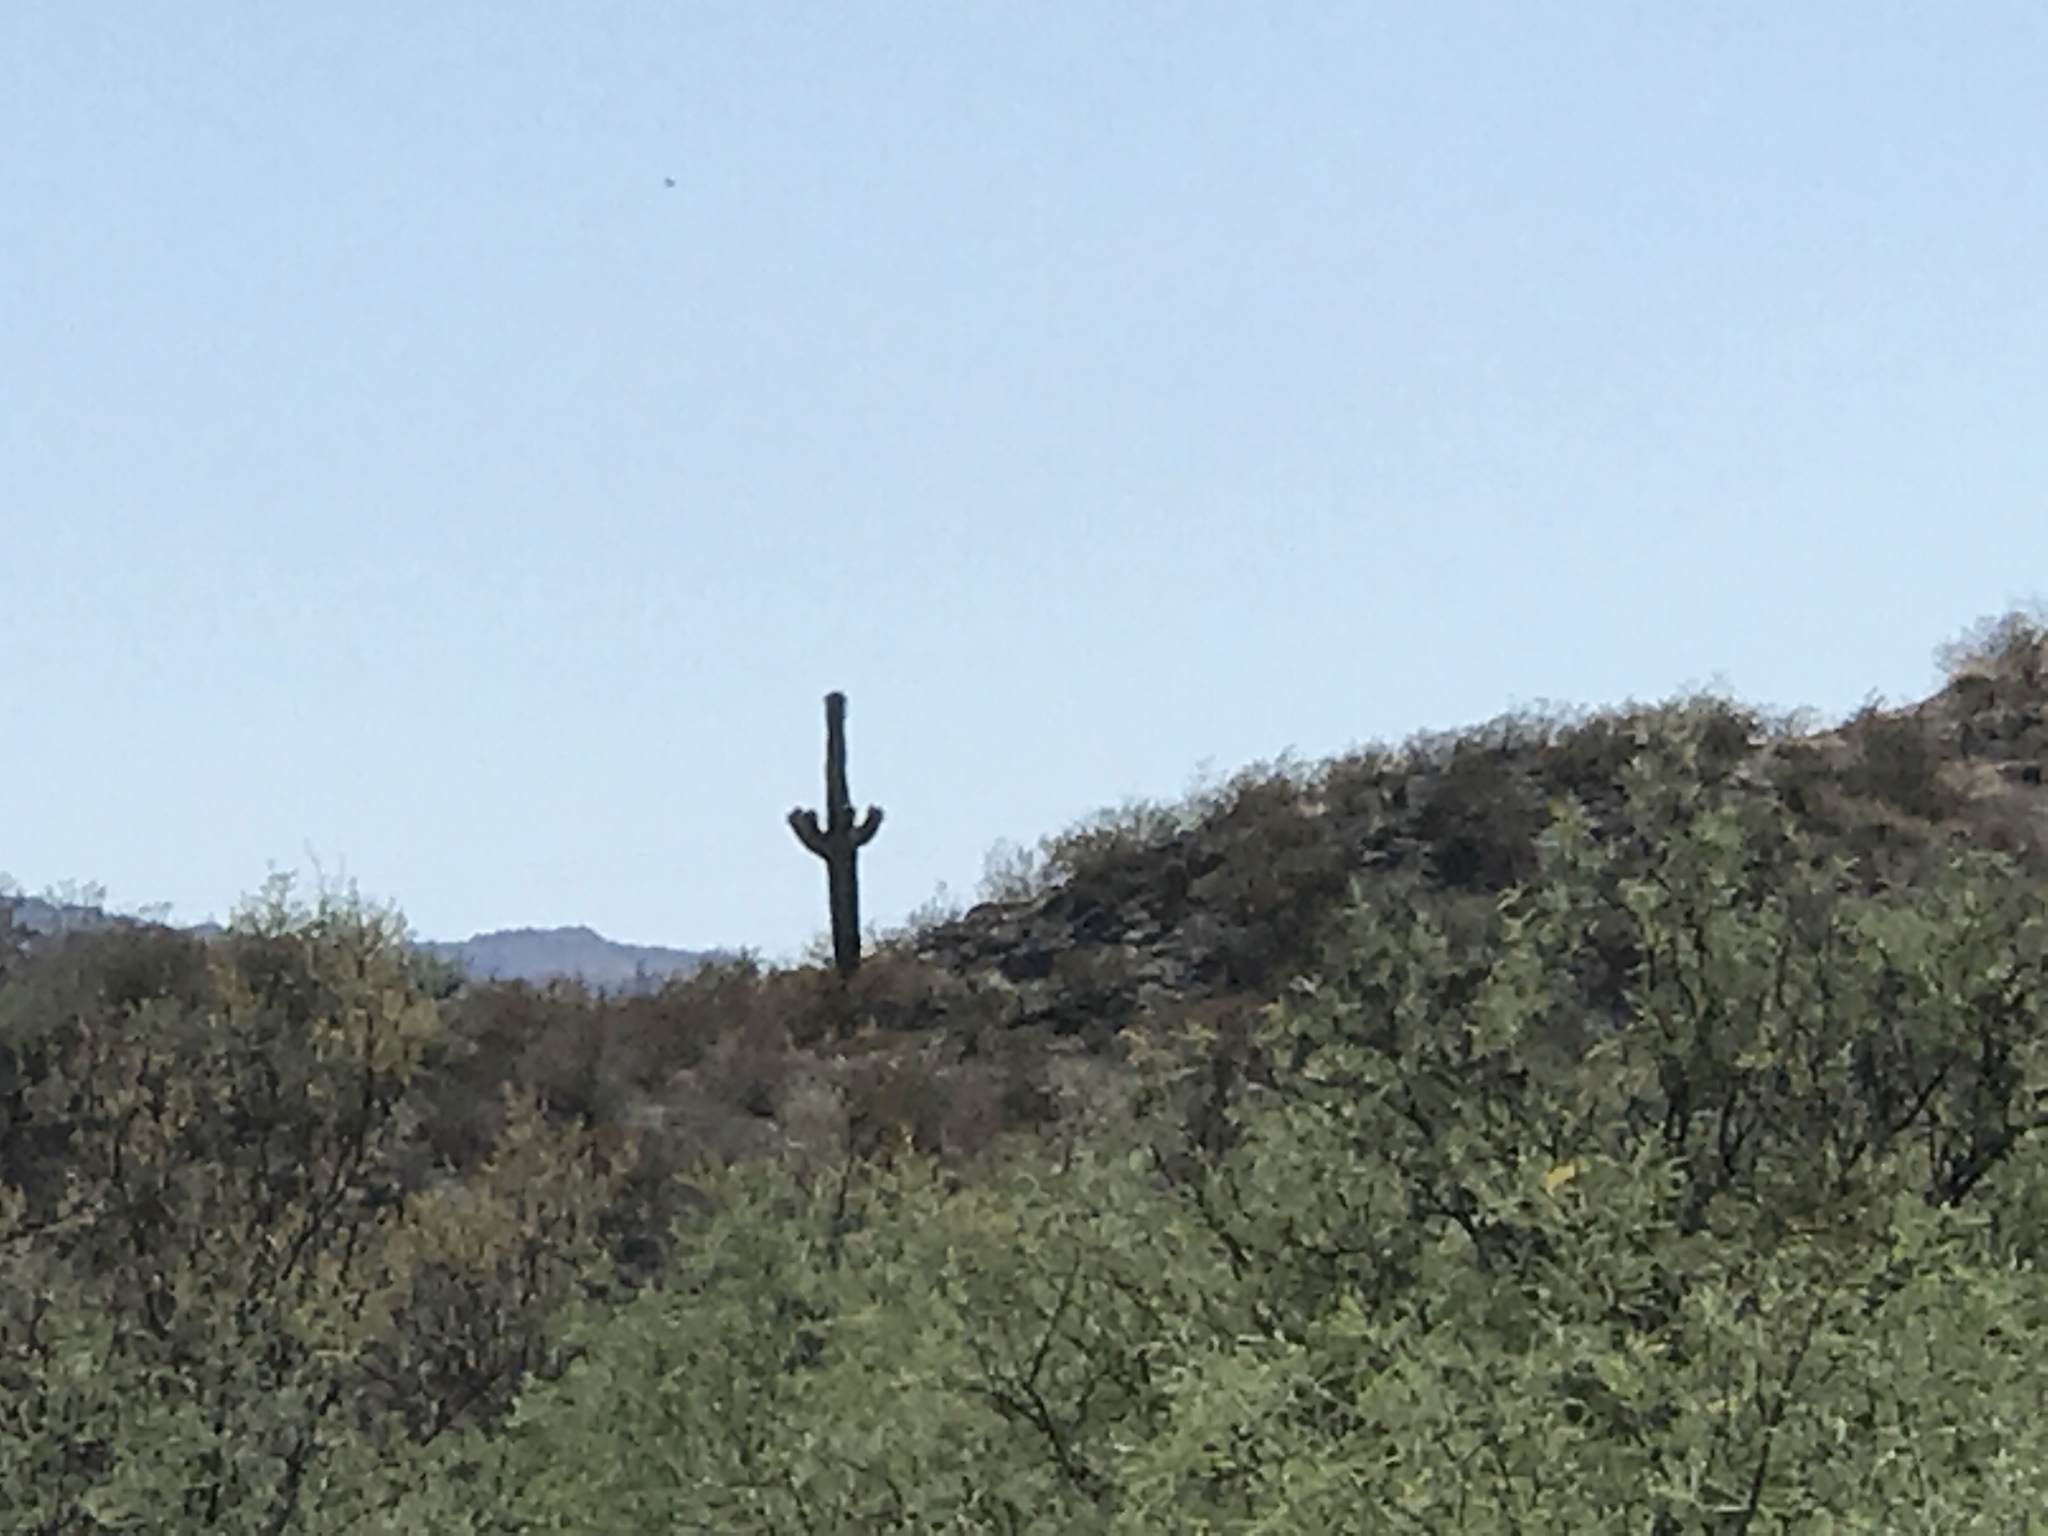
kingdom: Plantae
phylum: Tracheophyta
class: Magnoliopsida
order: Caryophyllales
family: Cactaceae
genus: Carnegiea
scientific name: Carnegiea gigantea
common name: Saguaro
